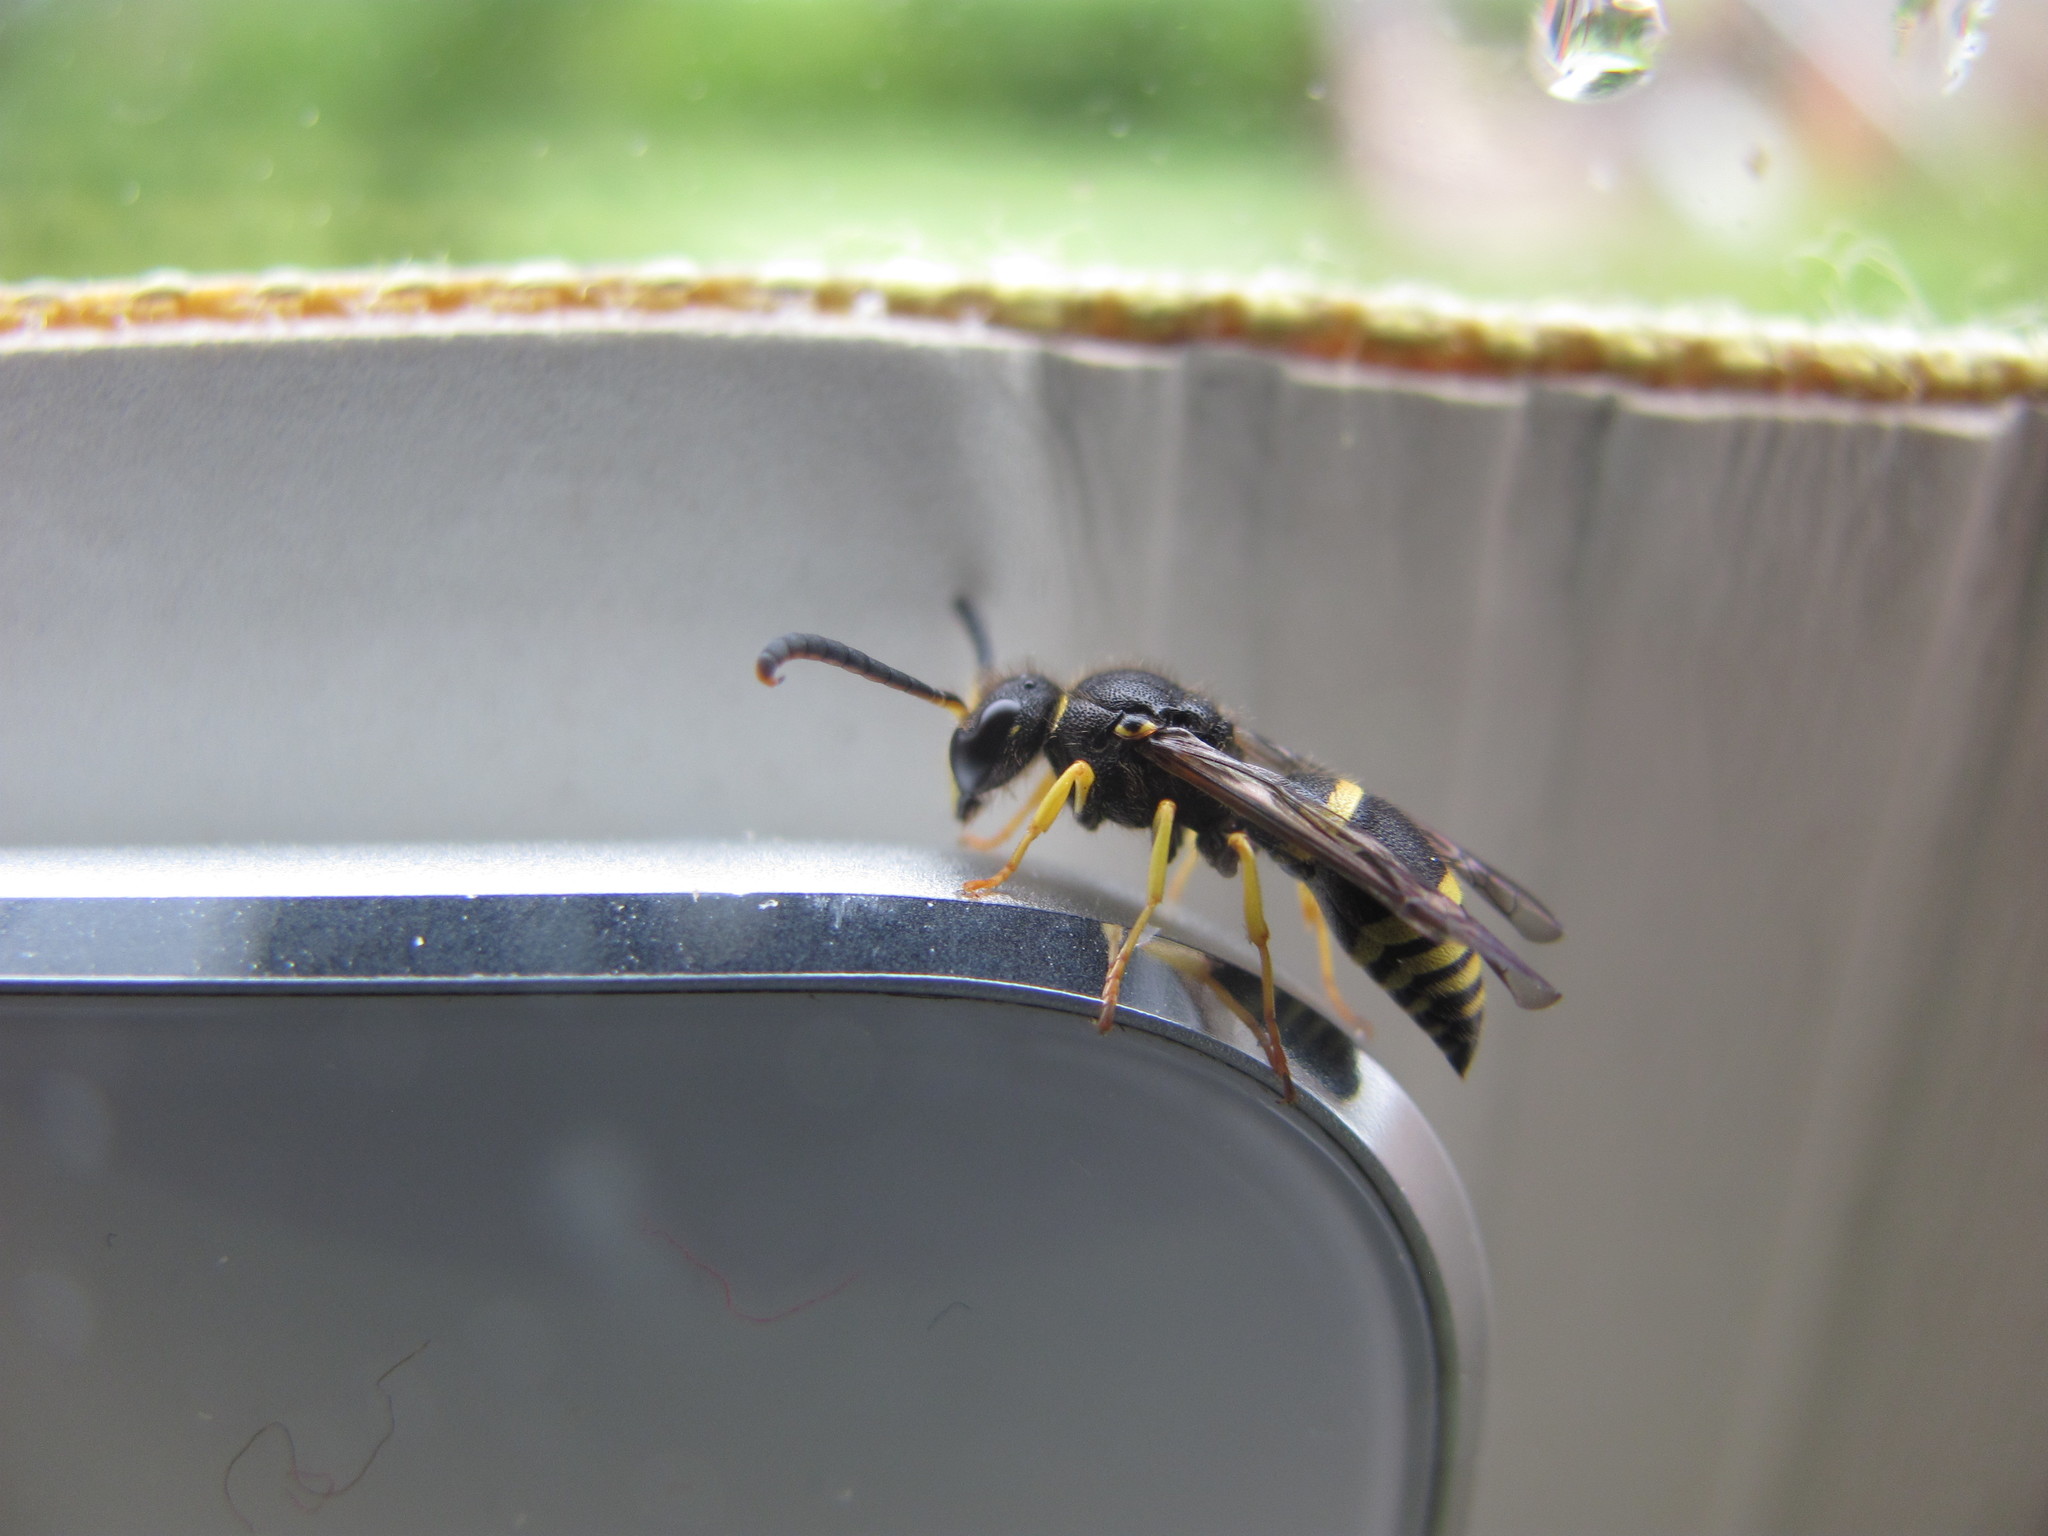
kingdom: Animalia
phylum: Arthropoda
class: Insecta
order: Hymenoptera
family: Vespidae
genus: Ancistrocerus
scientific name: Ancistrocerus gazella
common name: European tube wasp
